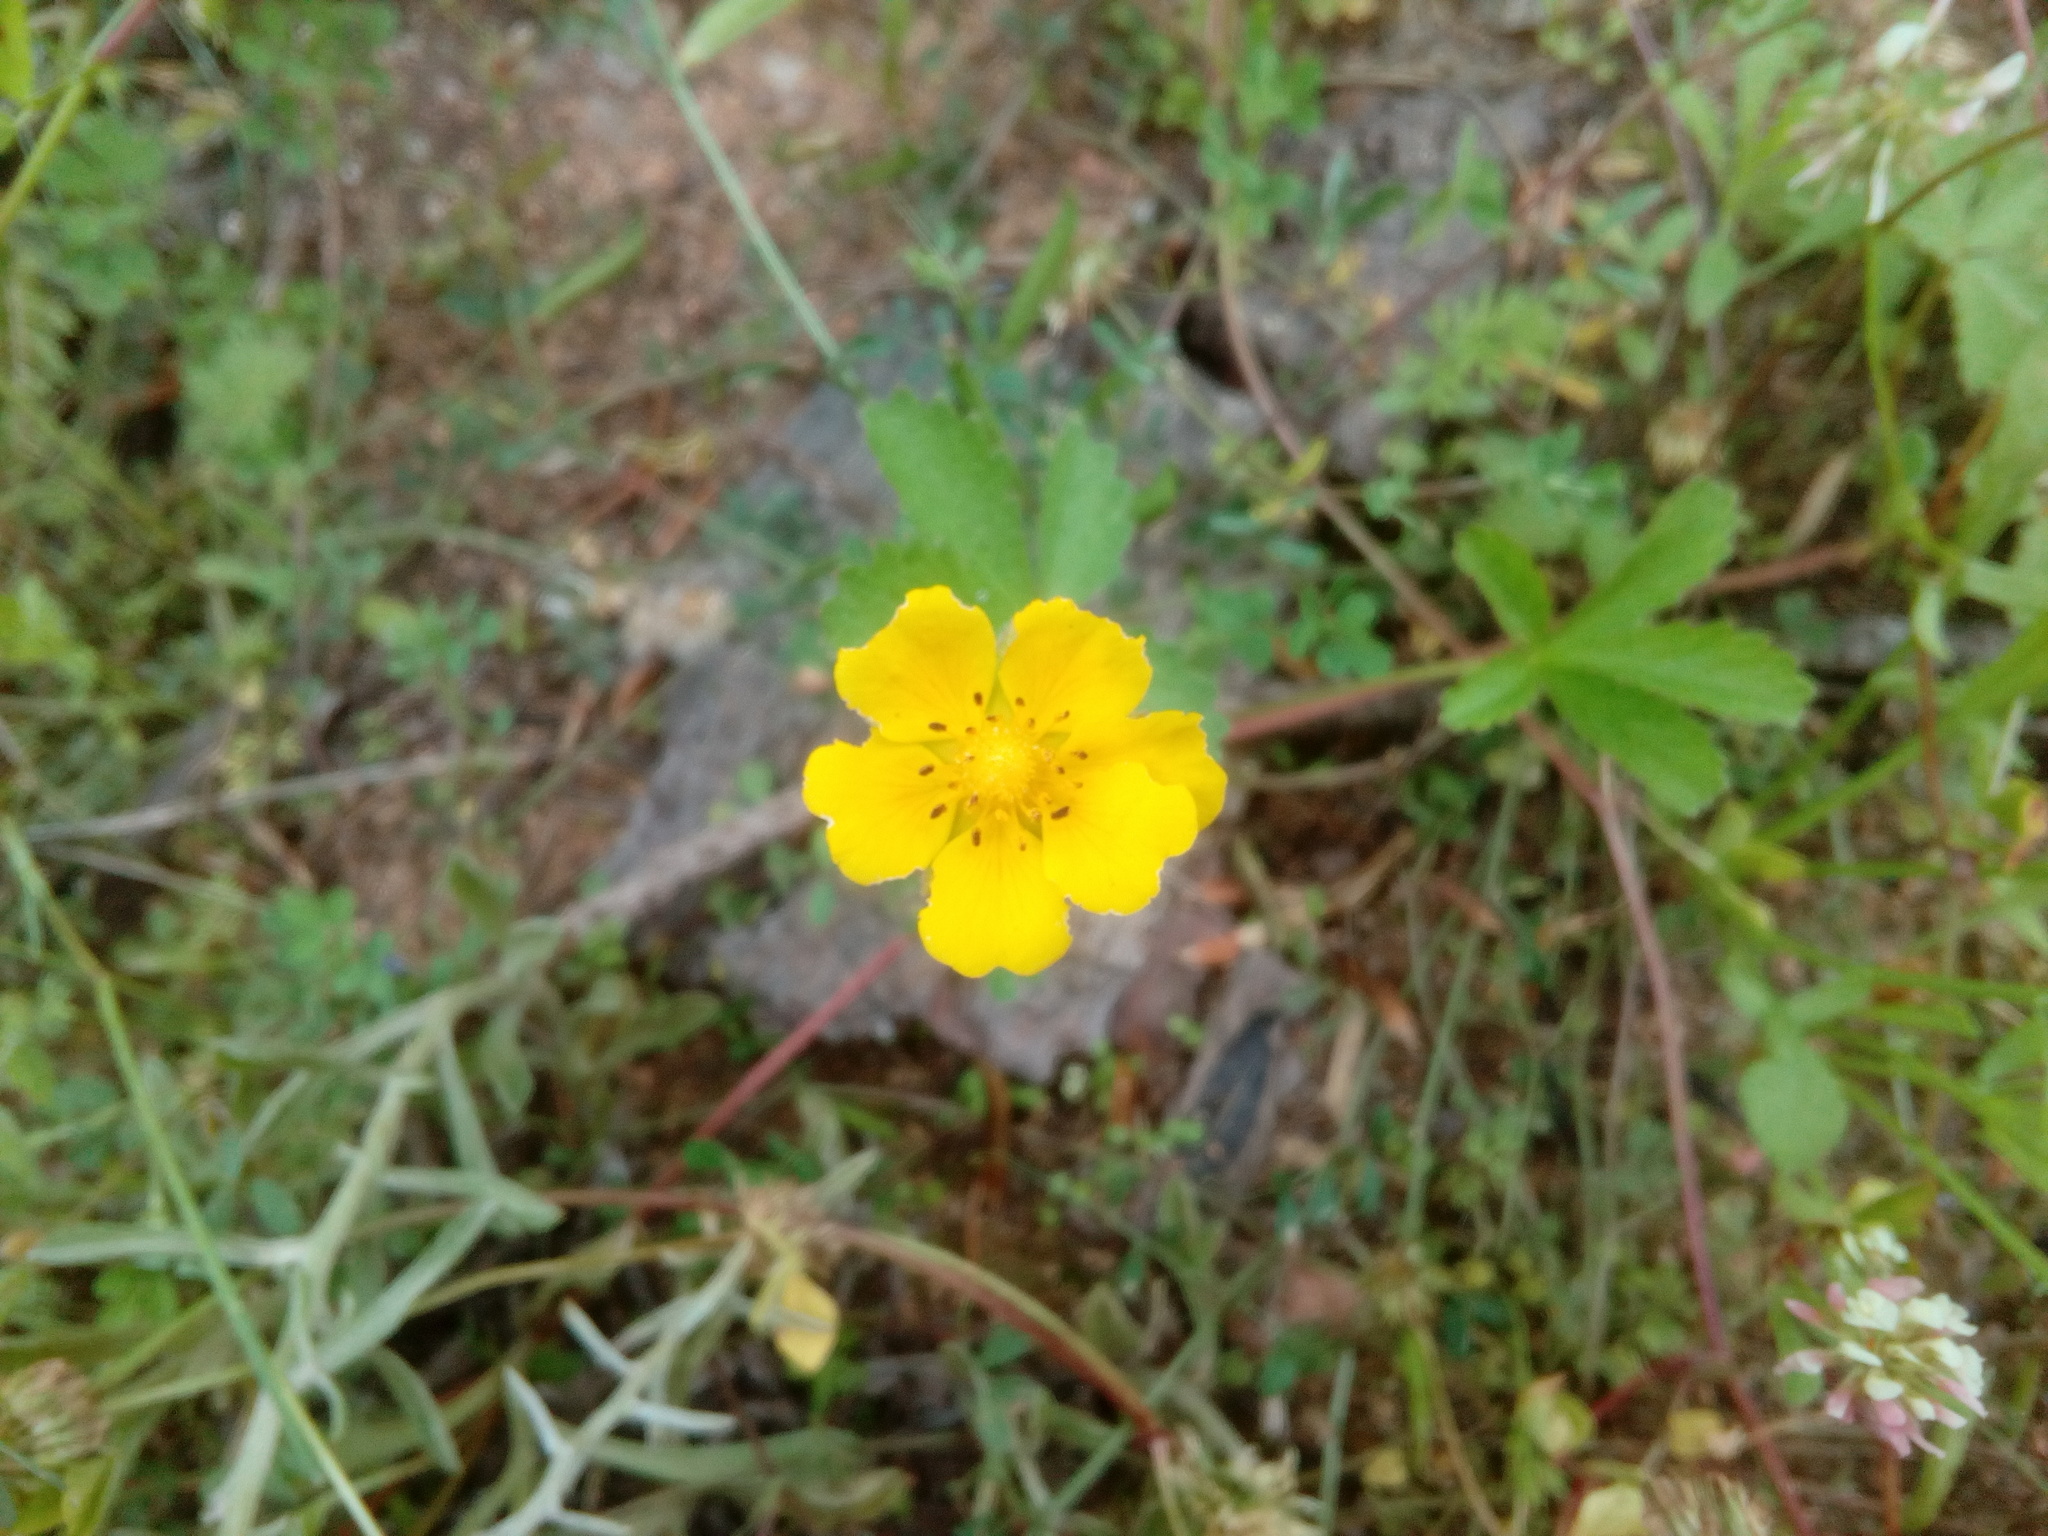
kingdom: Plantae
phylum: Tracheophyta
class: Magnoliopsida
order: Rosales
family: Rosaceae
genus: Potentilla
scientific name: Potentilla reptans
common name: Creeping cinquefoil
